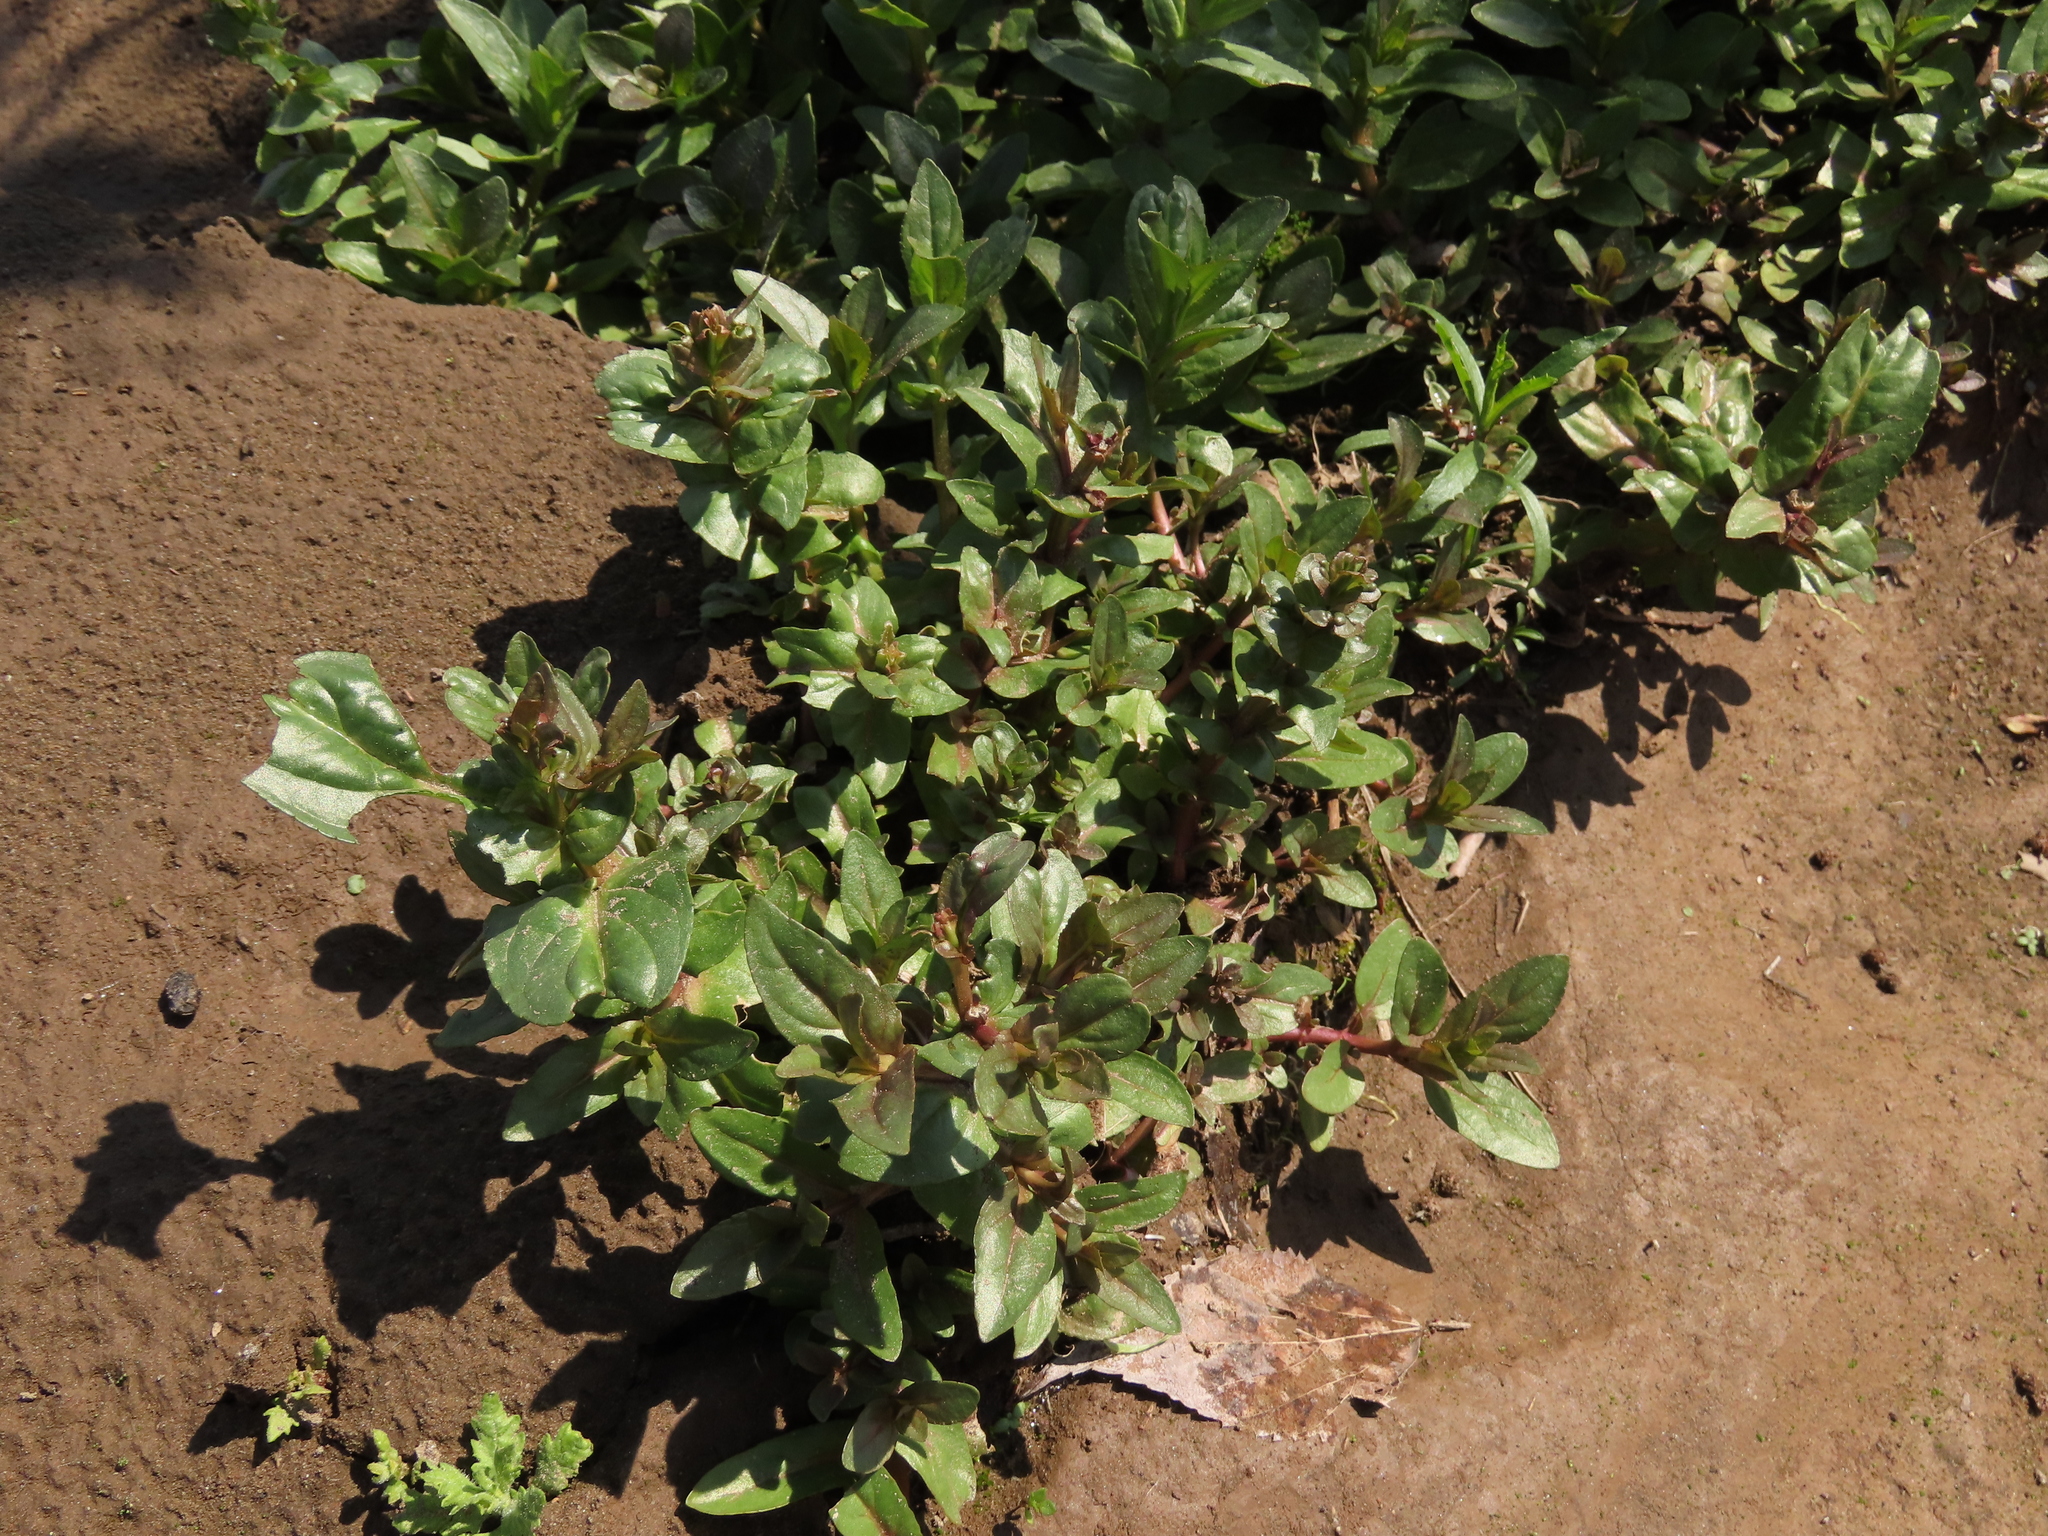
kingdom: Plantae
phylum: Tracheophyta
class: Magnoliopsida
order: Lamiales
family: Plantaginaceae
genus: Veronica
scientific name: Veronica anagallis-aquatica
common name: Water speedwell
